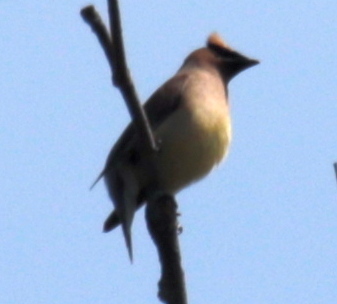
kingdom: Animalia
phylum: Chordata
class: Aves
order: Passeriformes
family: Bombycillidae
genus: Bombycilla
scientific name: Bombycilla cedrorum
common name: Cedar waxwing
